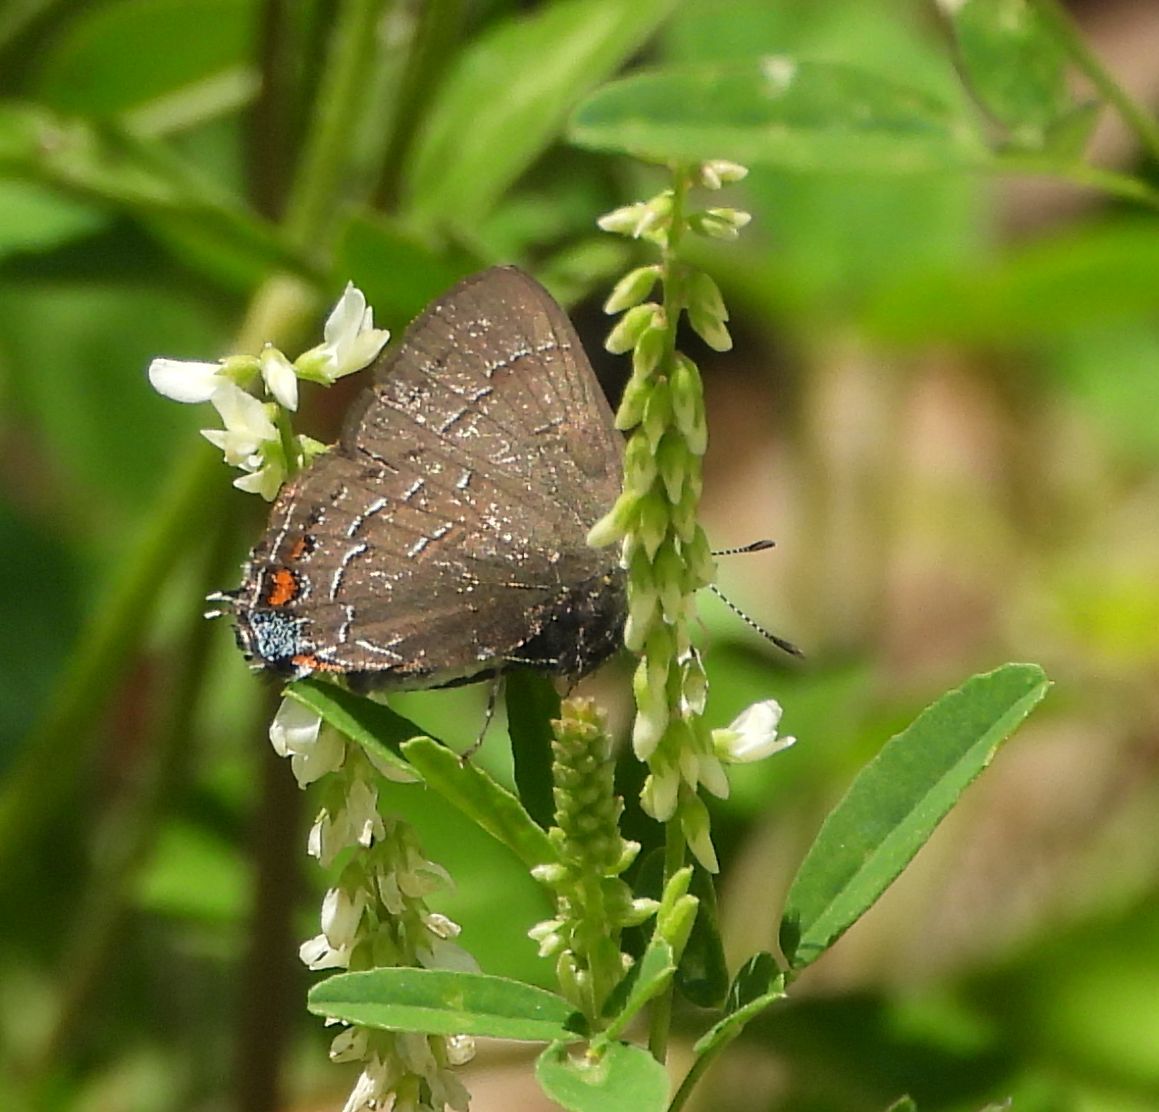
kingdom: Animalia
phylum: Arthropoda
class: Insecta
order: Lepidoptera
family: Lycaenidae
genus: Satyrium
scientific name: Satyrium calanus
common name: Banded hairstreak
